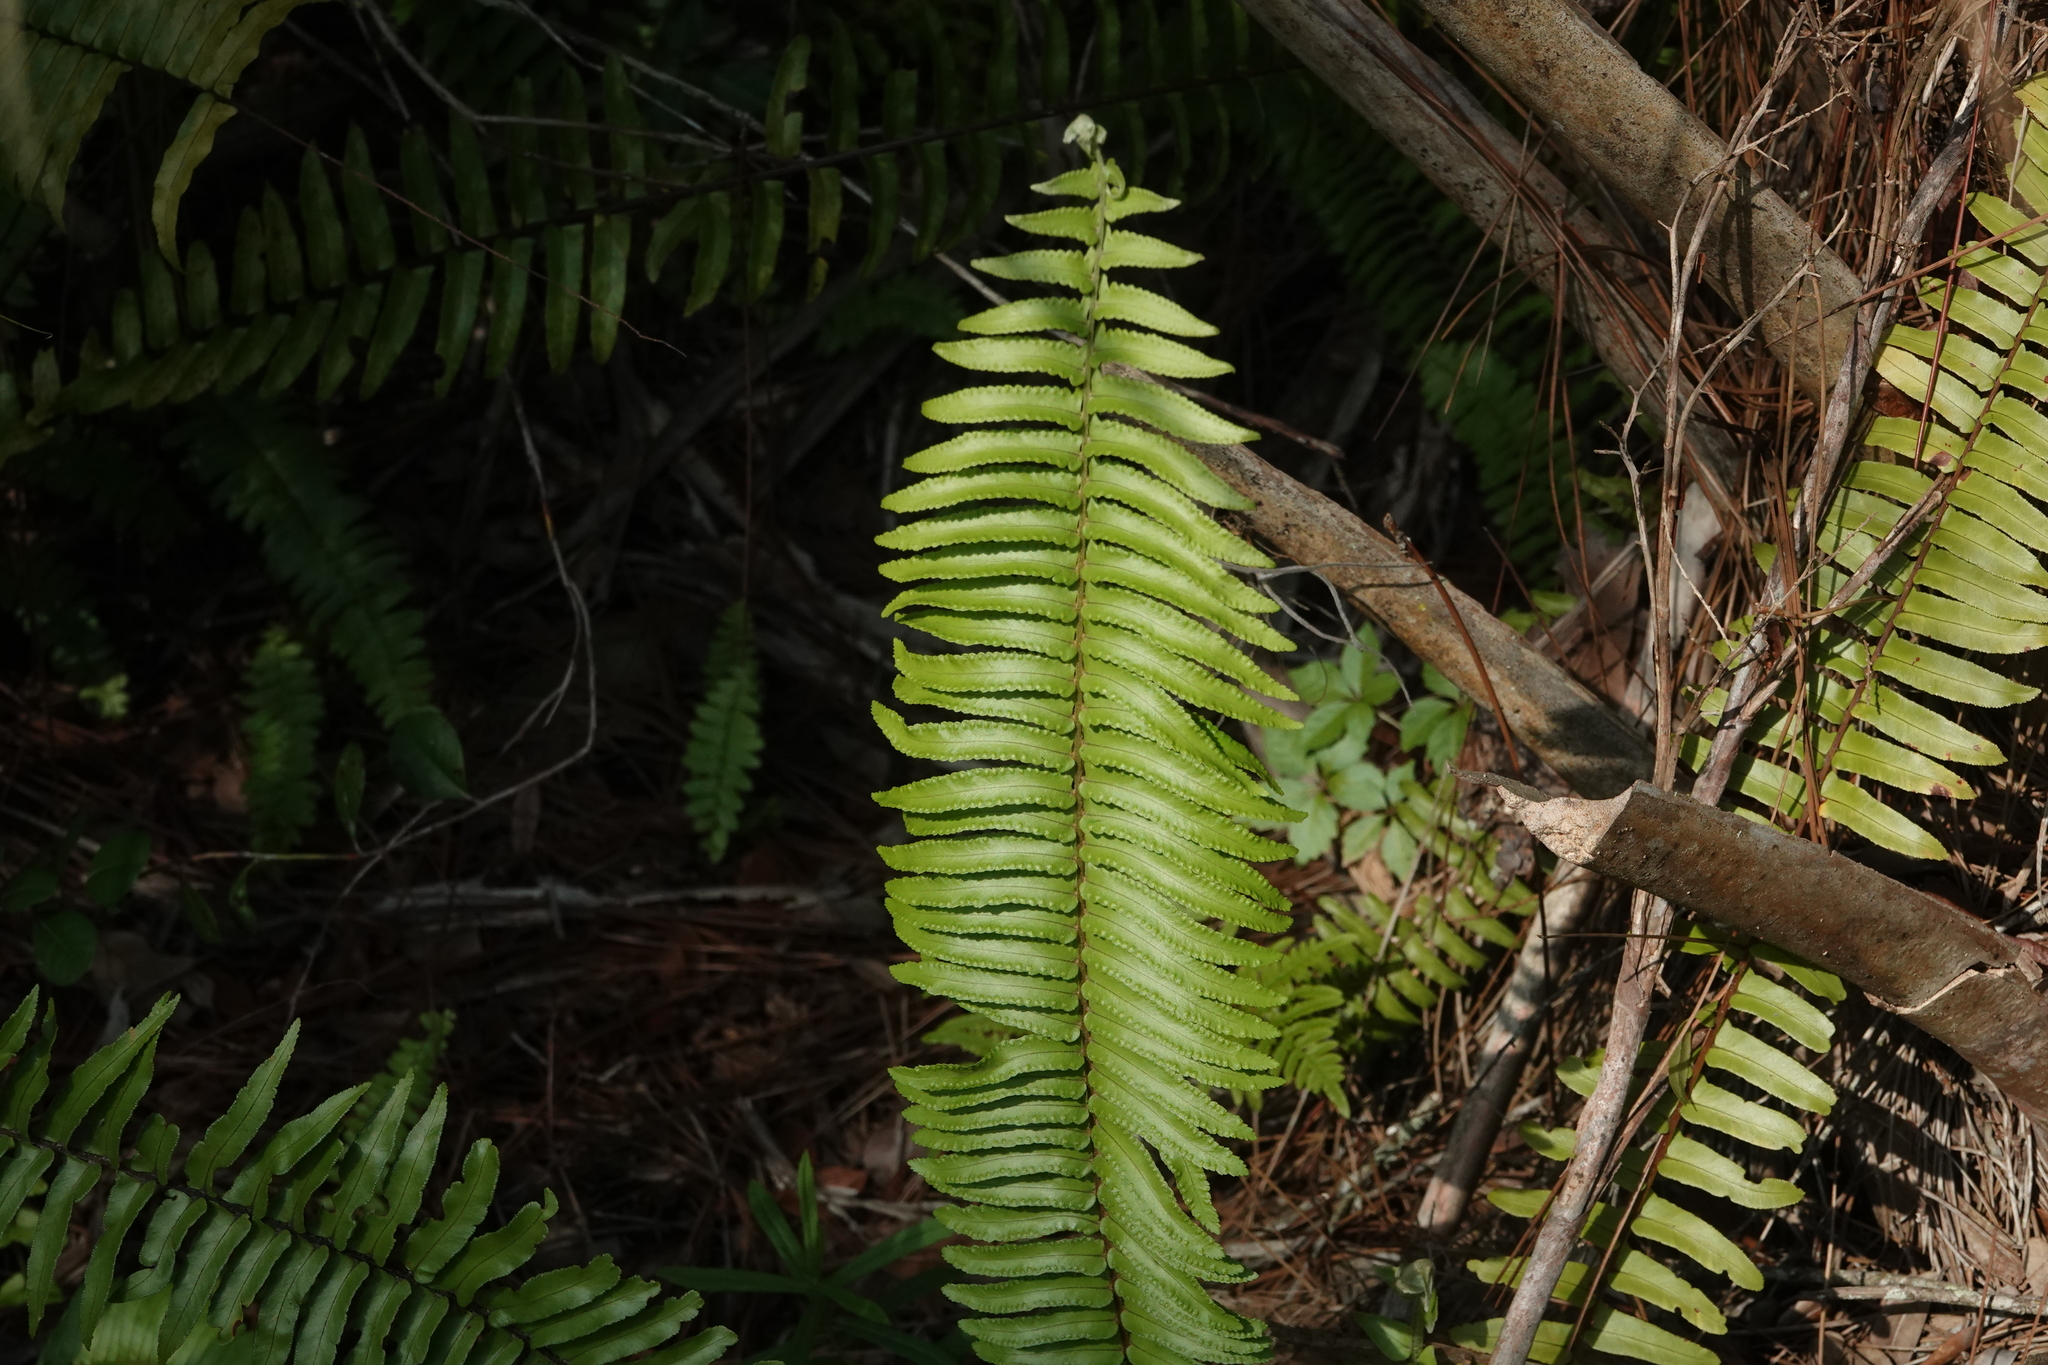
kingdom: Plantae
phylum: Tracheophyta
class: Polypodiopsida
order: Polypodiales
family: Nephrolepidaceae
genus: Nephrolepis
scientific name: Nephrolepis cordifolia
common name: Narrow swordfern
